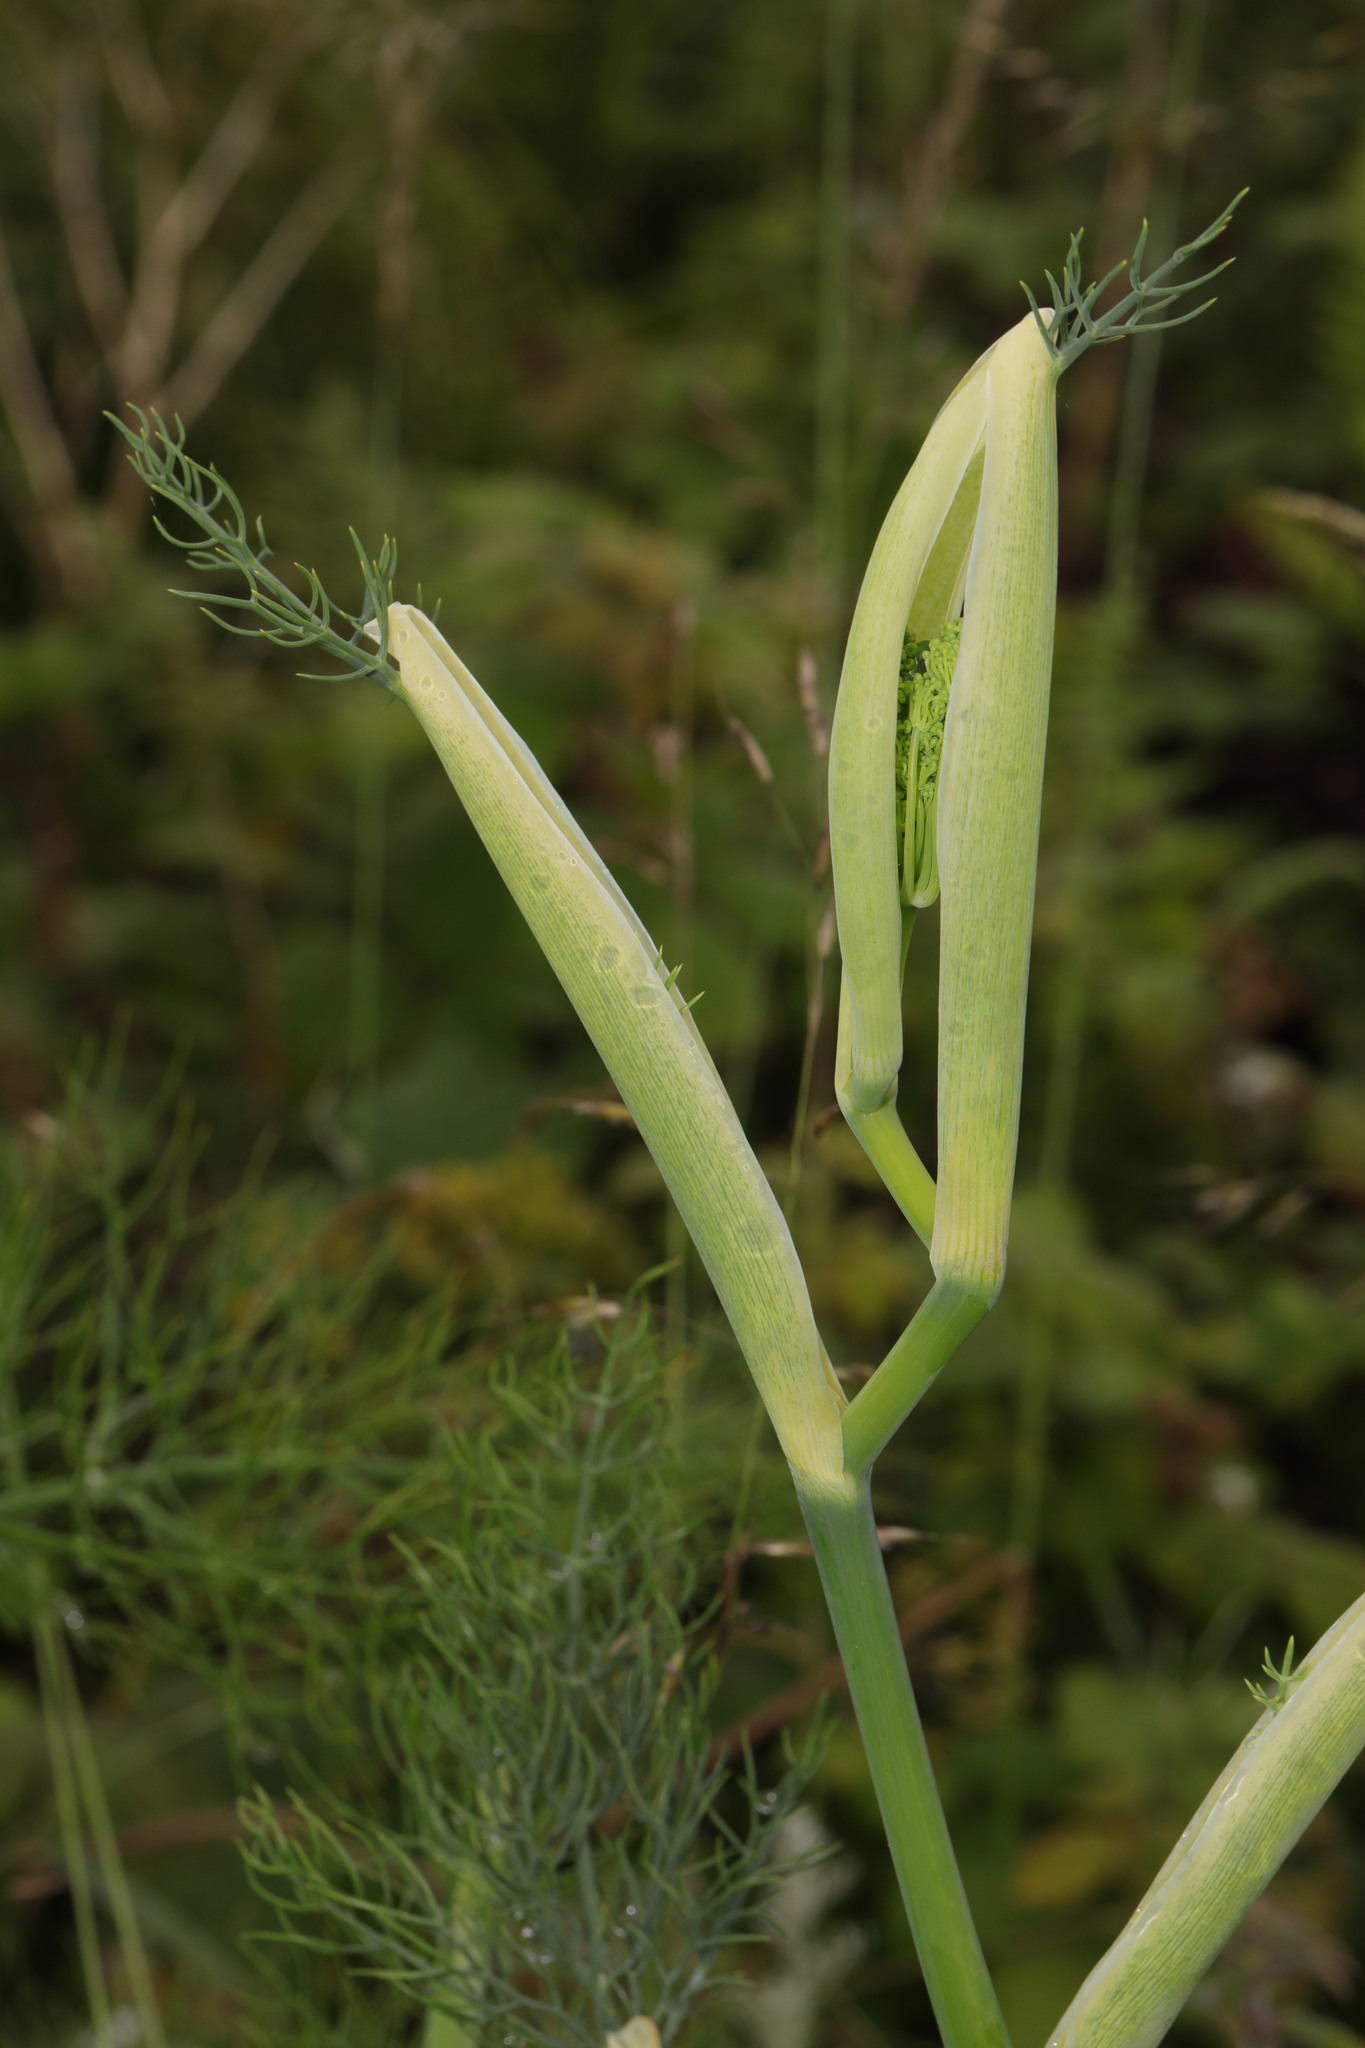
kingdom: Plantae
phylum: Tracheophyta
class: Magnoliopsida
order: Apiales
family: Apiaceae
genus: Foeniculum
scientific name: Foeniculum vulgare
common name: Fennel
